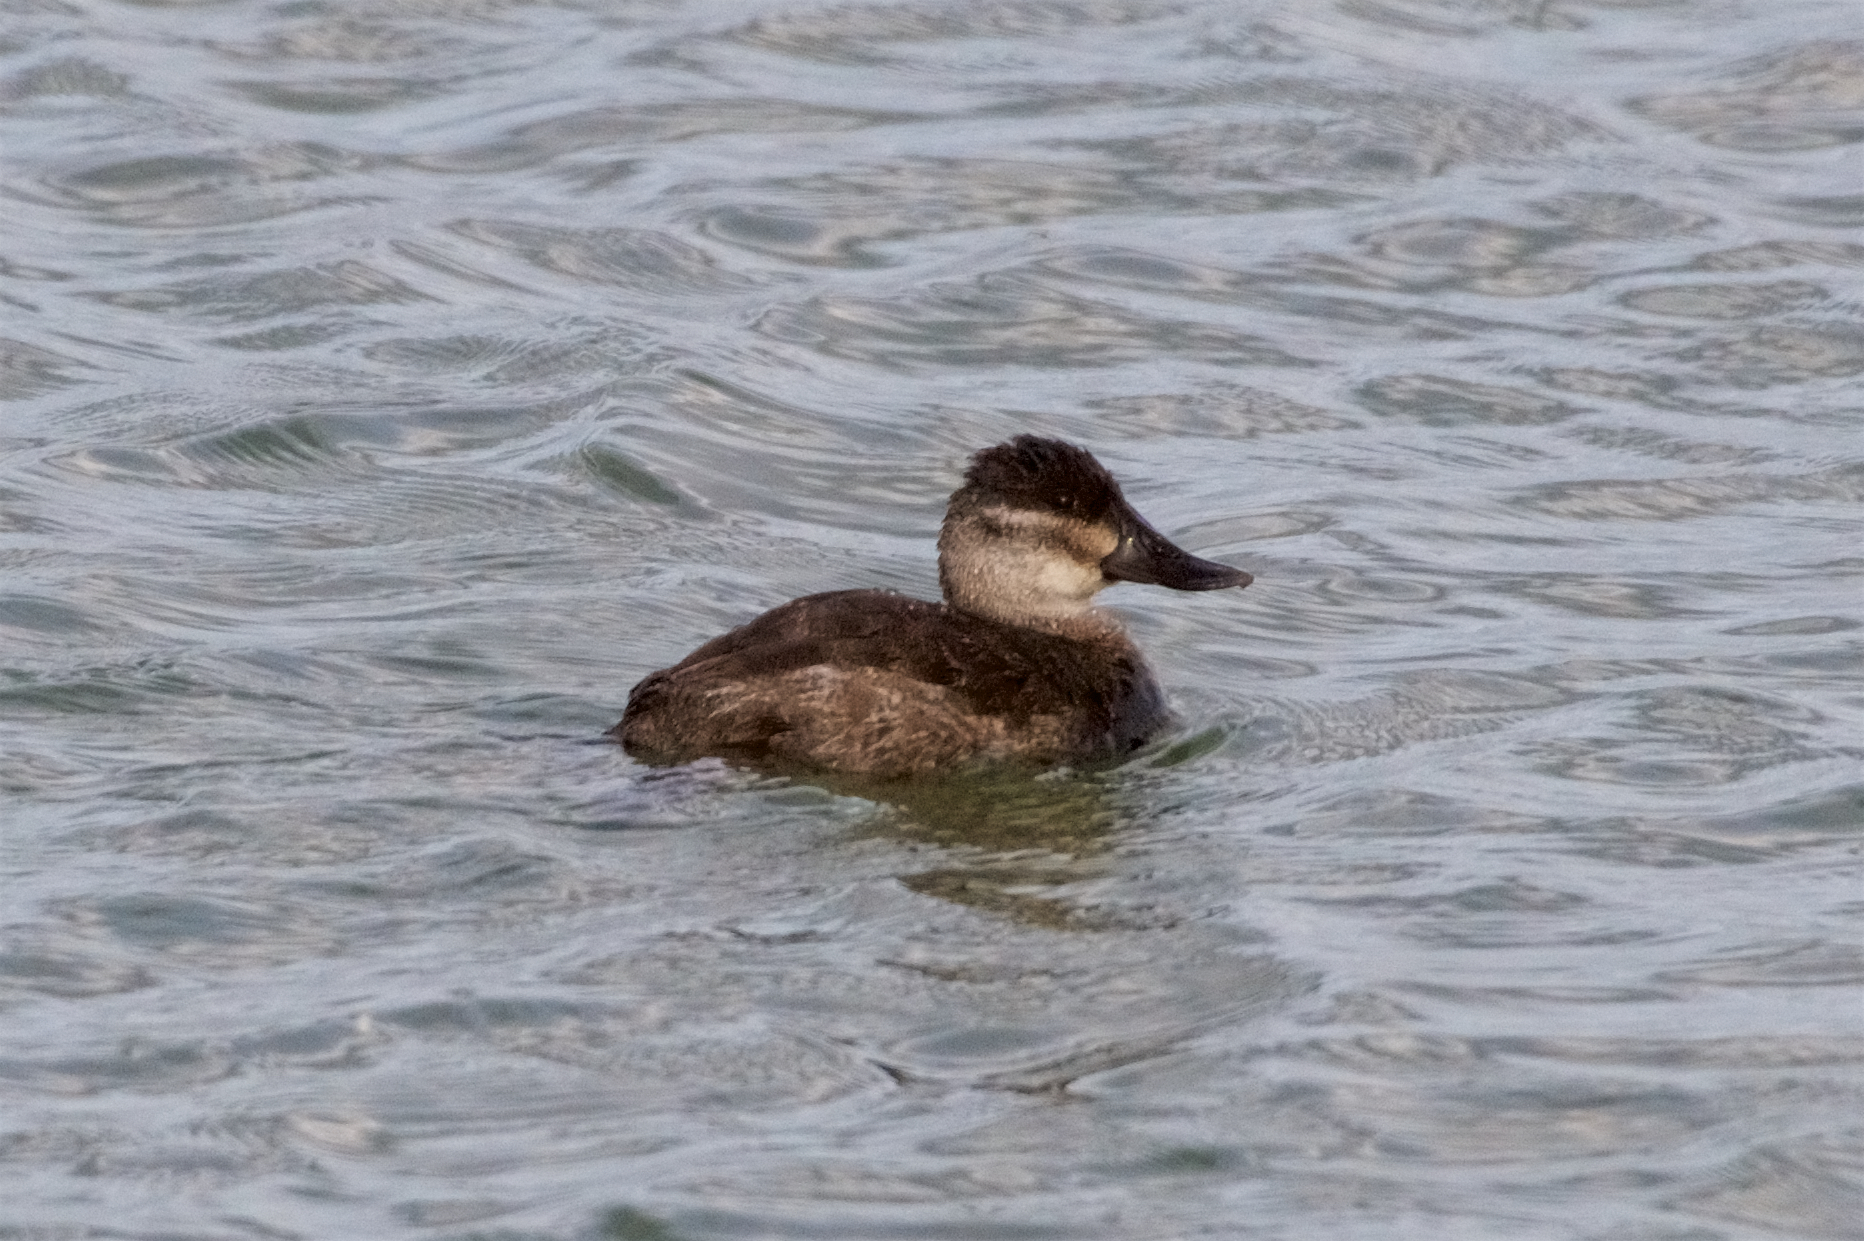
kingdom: Animalia
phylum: Chordata
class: Aves
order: Anseriformes
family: Anatidae
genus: Oxyura
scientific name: Oxyura jamaicensis
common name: Ruddy duck
